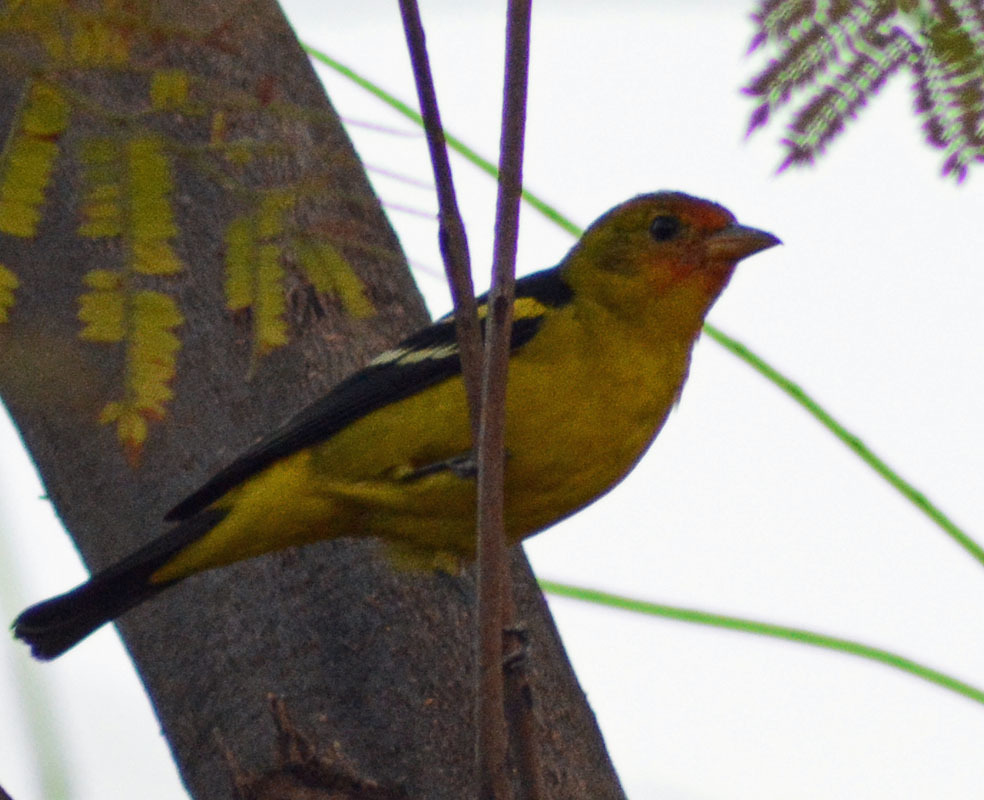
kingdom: Animalia
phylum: Chordata
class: Aves
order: Passeriformes
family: Cardinalidae
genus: Piranga
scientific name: Piranga ludoviciana
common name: Western tanager
